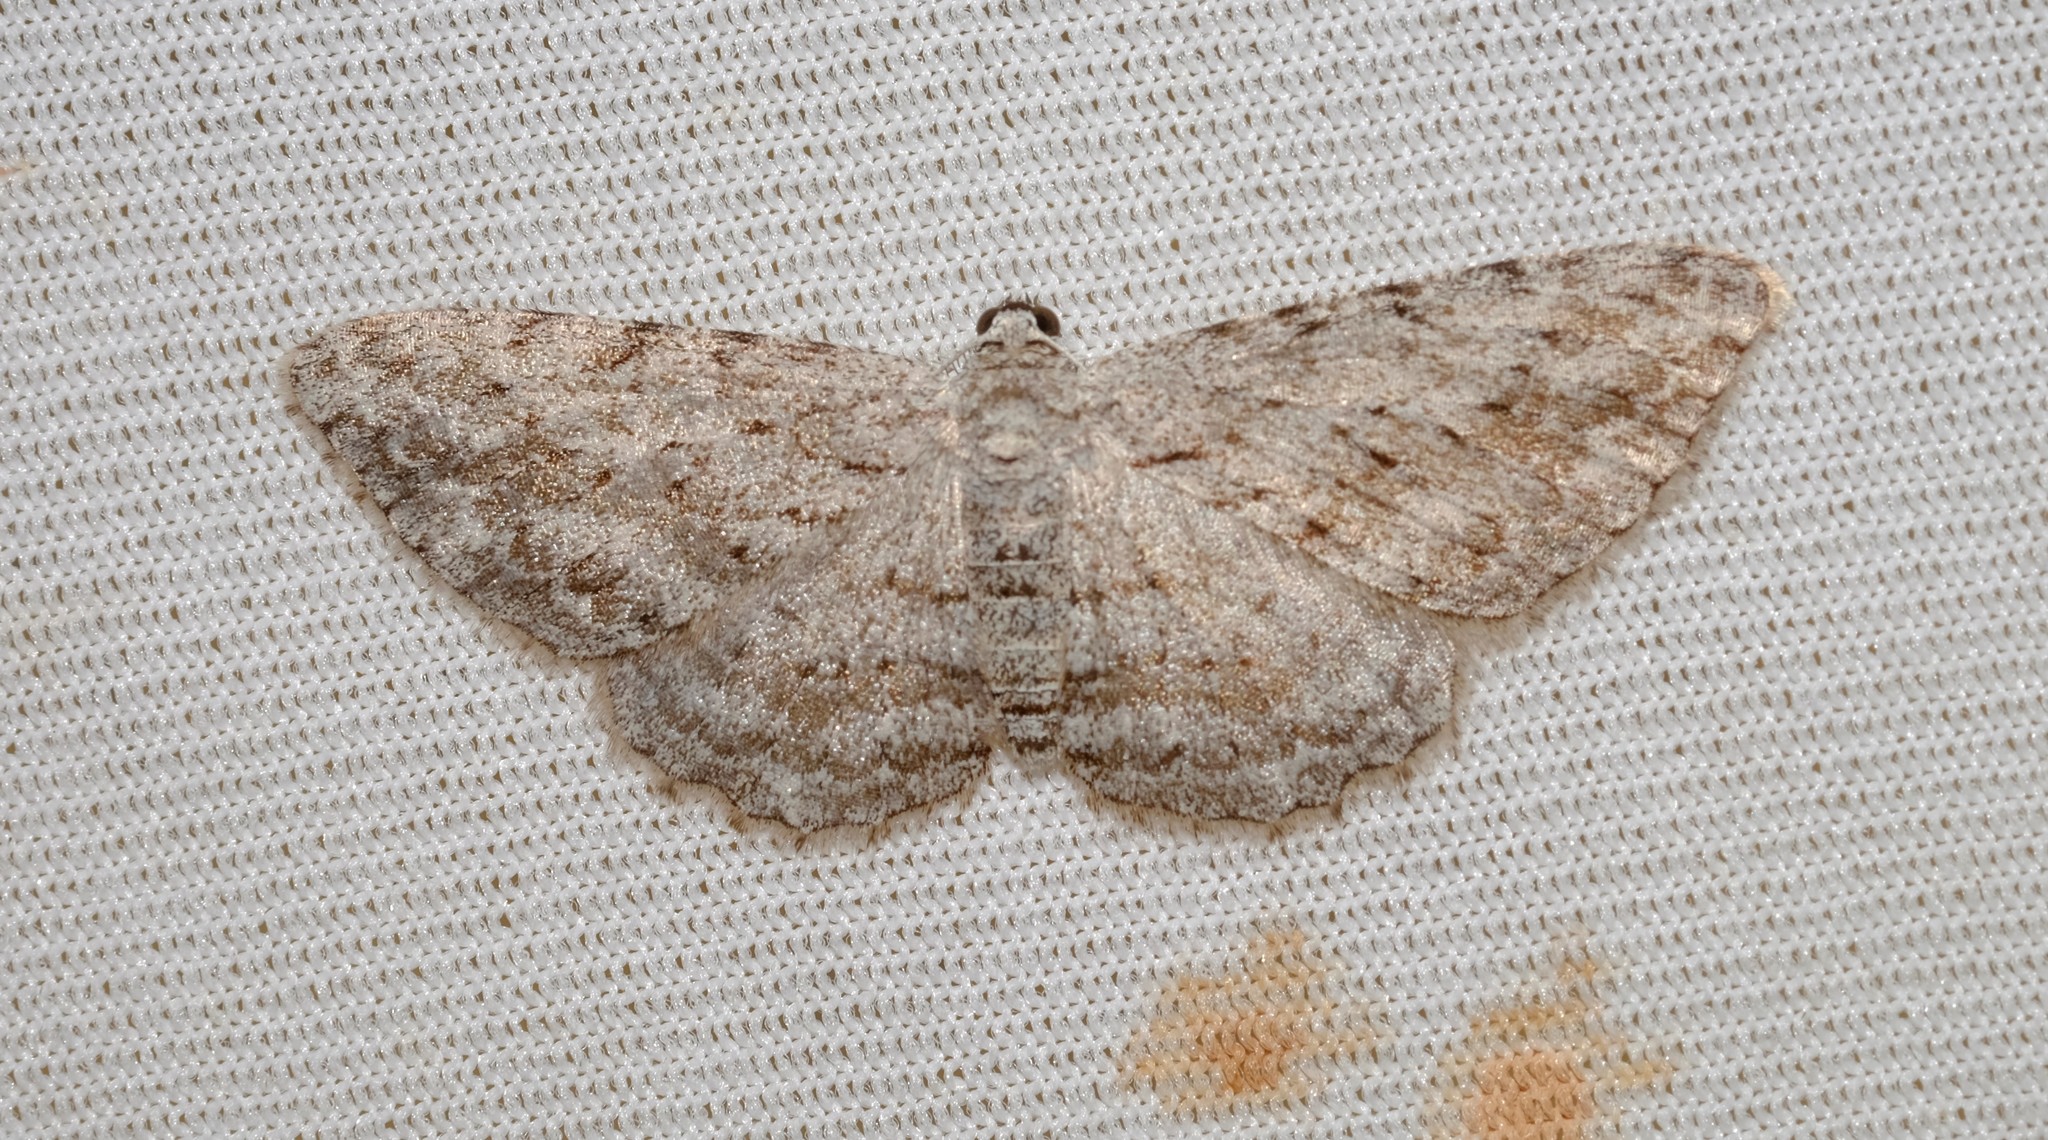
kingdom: Animalia
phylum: Arthropoda
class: Insecta
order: Lepidoptera
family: Geometridae
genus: Phelotis
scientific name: Phelotis cognata
